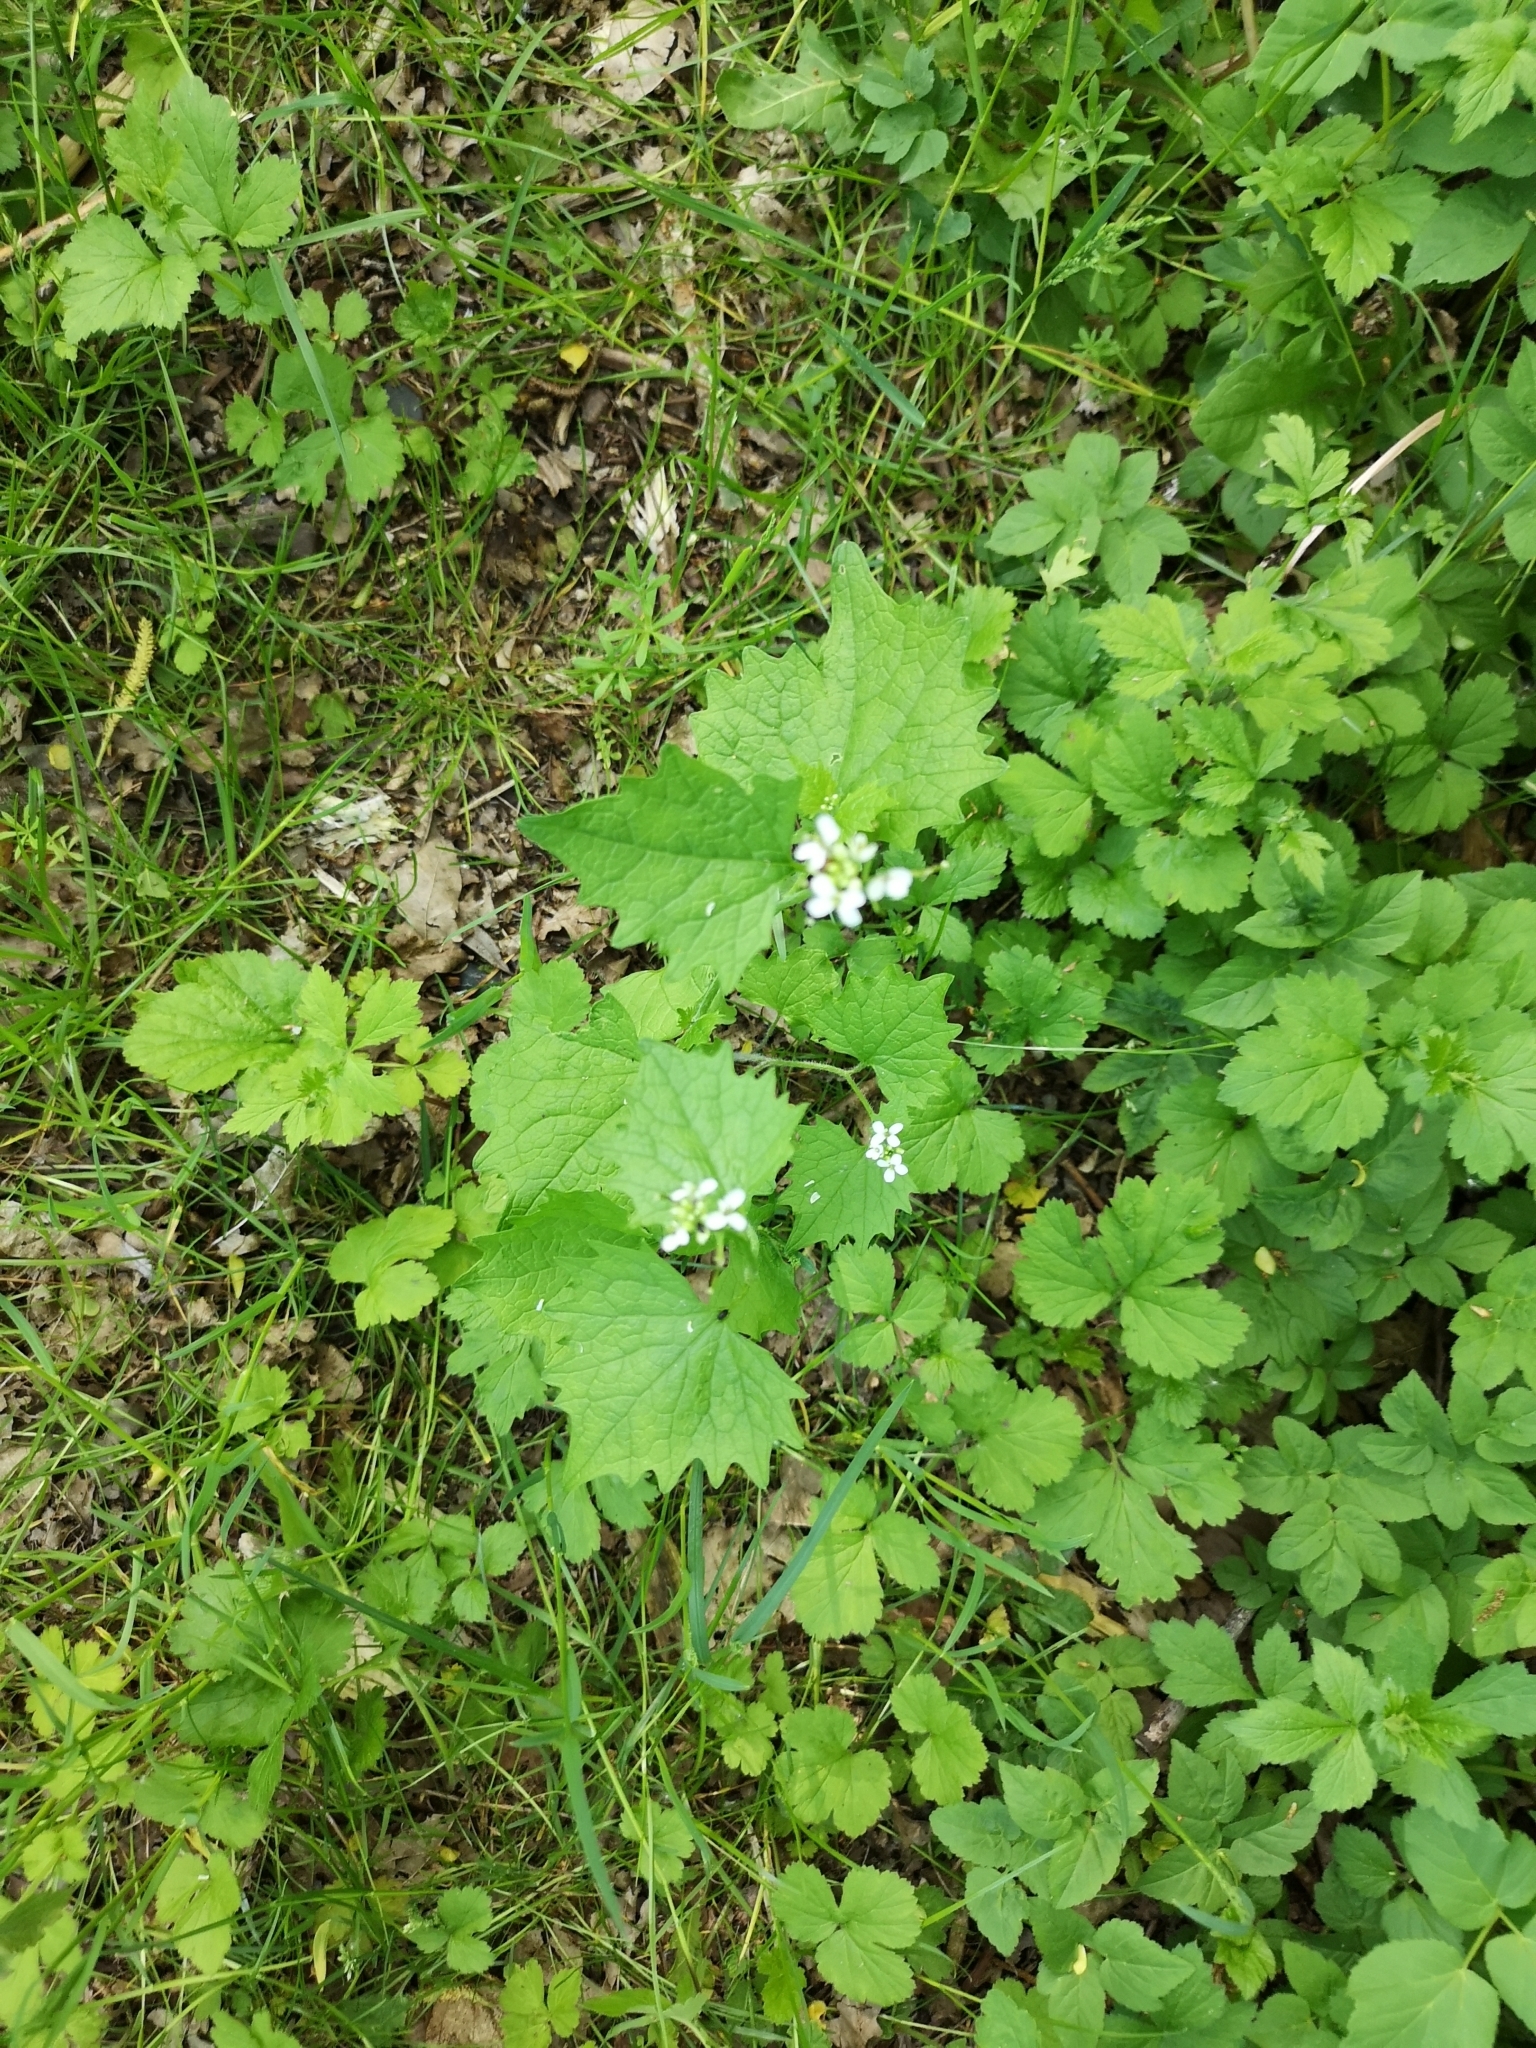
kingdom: Plantae
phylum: Tracheophyta
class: Magnoliopsida
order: Brassicales
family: Brassicaceae
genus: Alliaria
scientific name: Alliaria petiolata
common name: Garlic mustard
